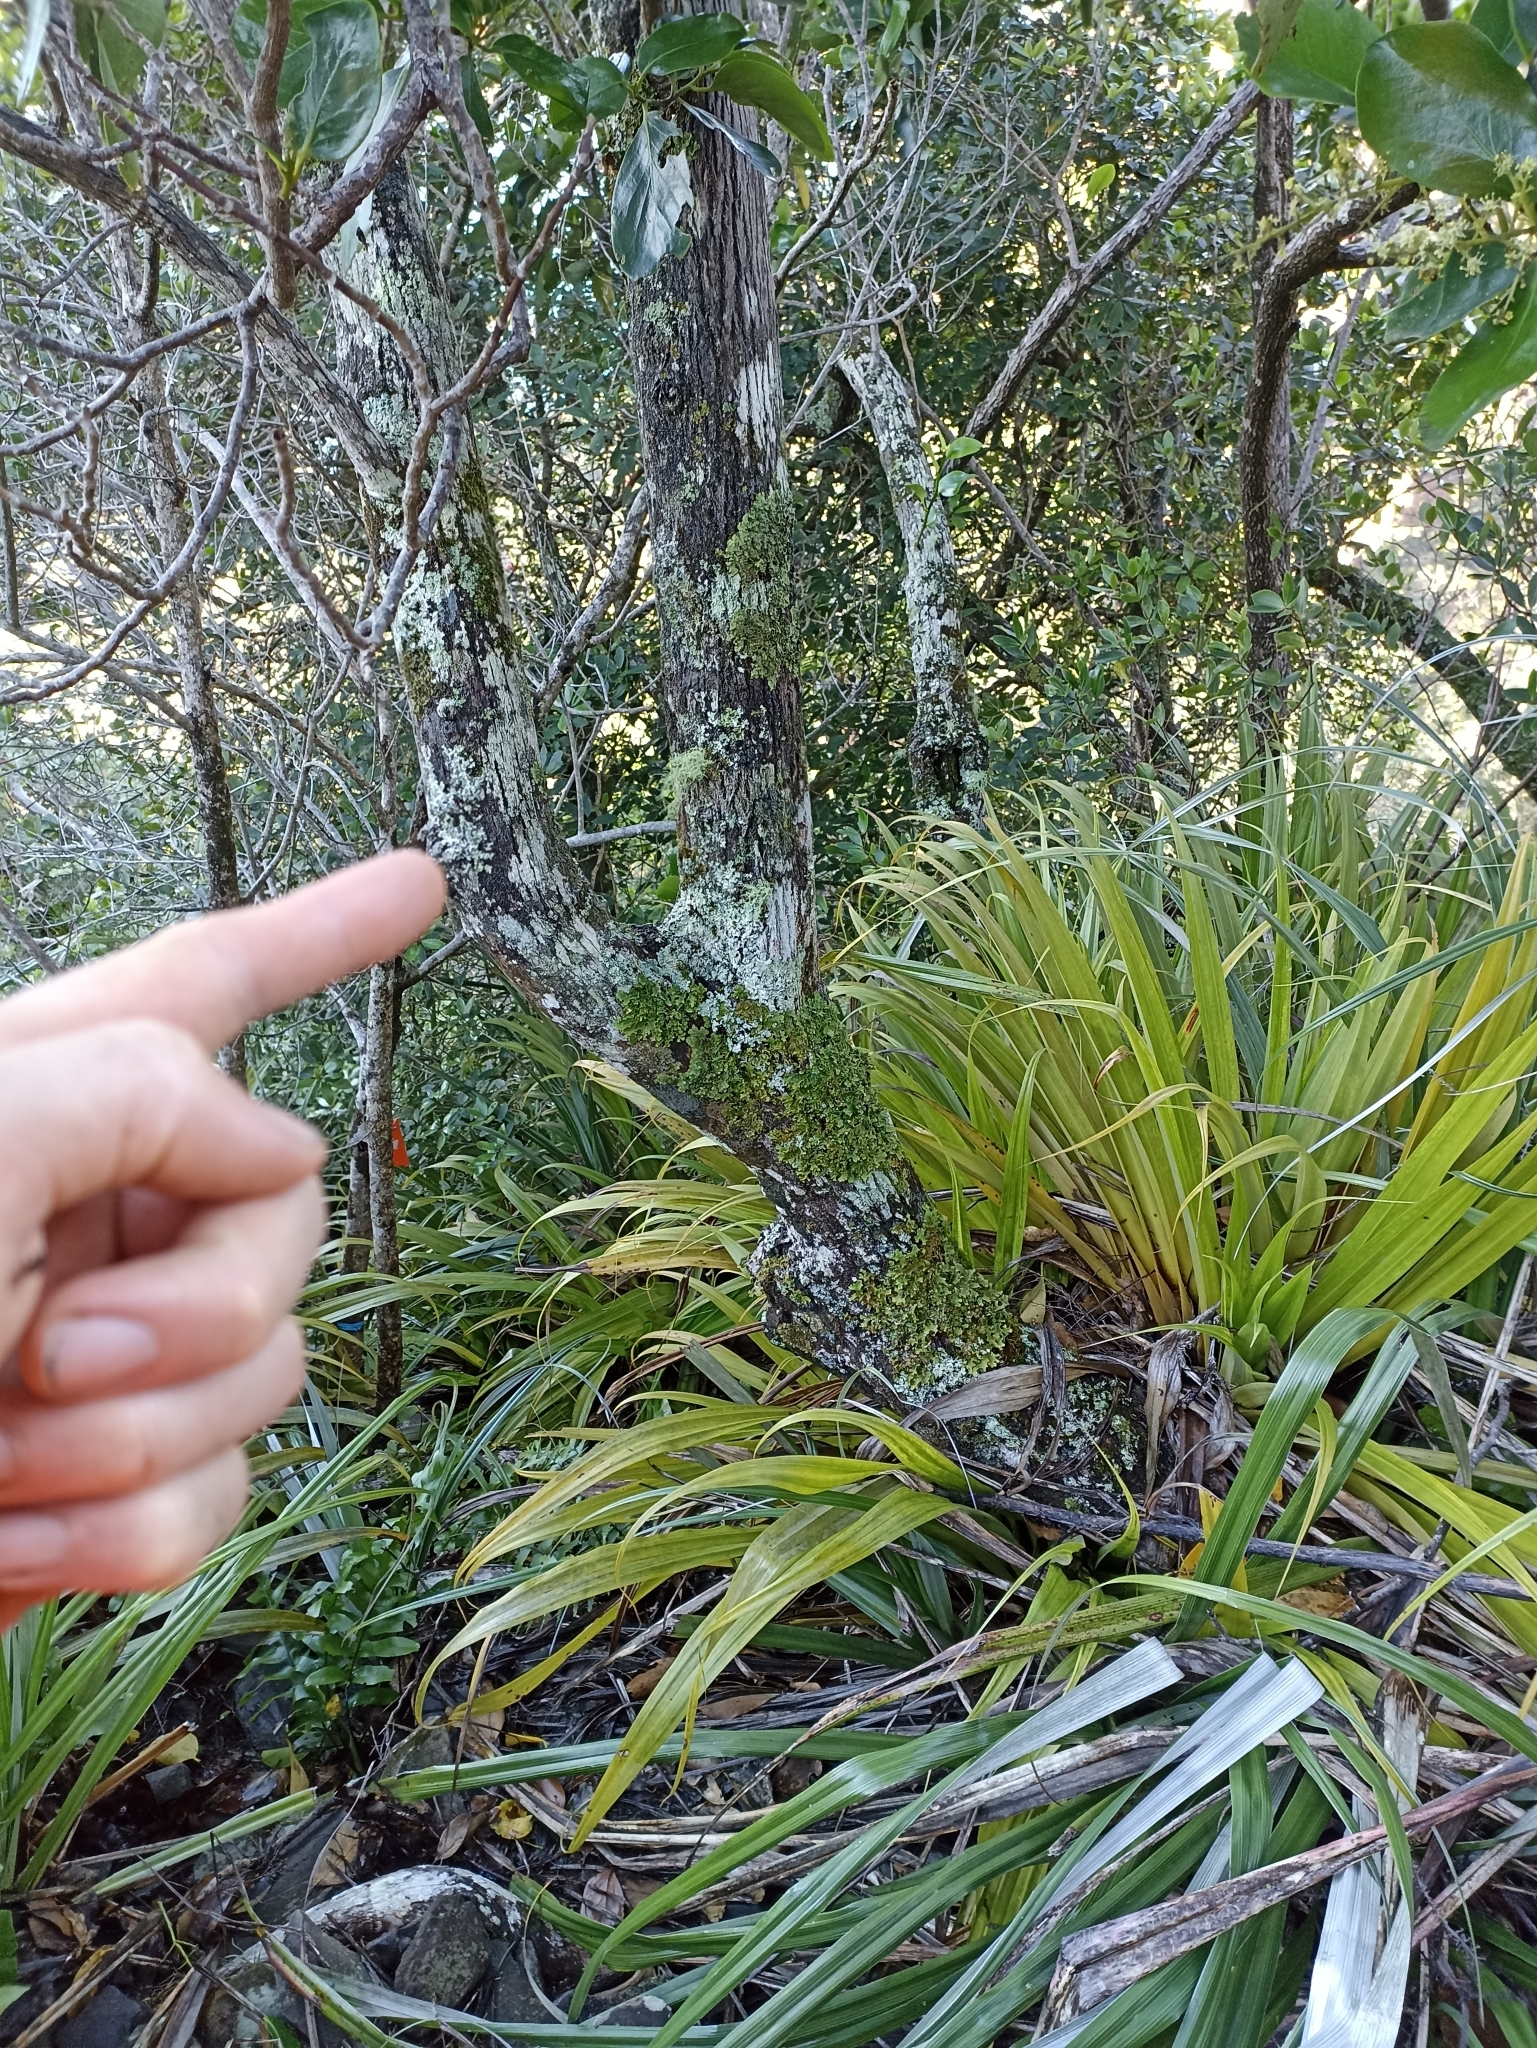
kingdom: Plantae
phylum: Tracheophyta
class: Magnoliopsida
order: Apiales
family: Griseliniaceae
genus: Griselinia
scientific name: Griselinia lucida
